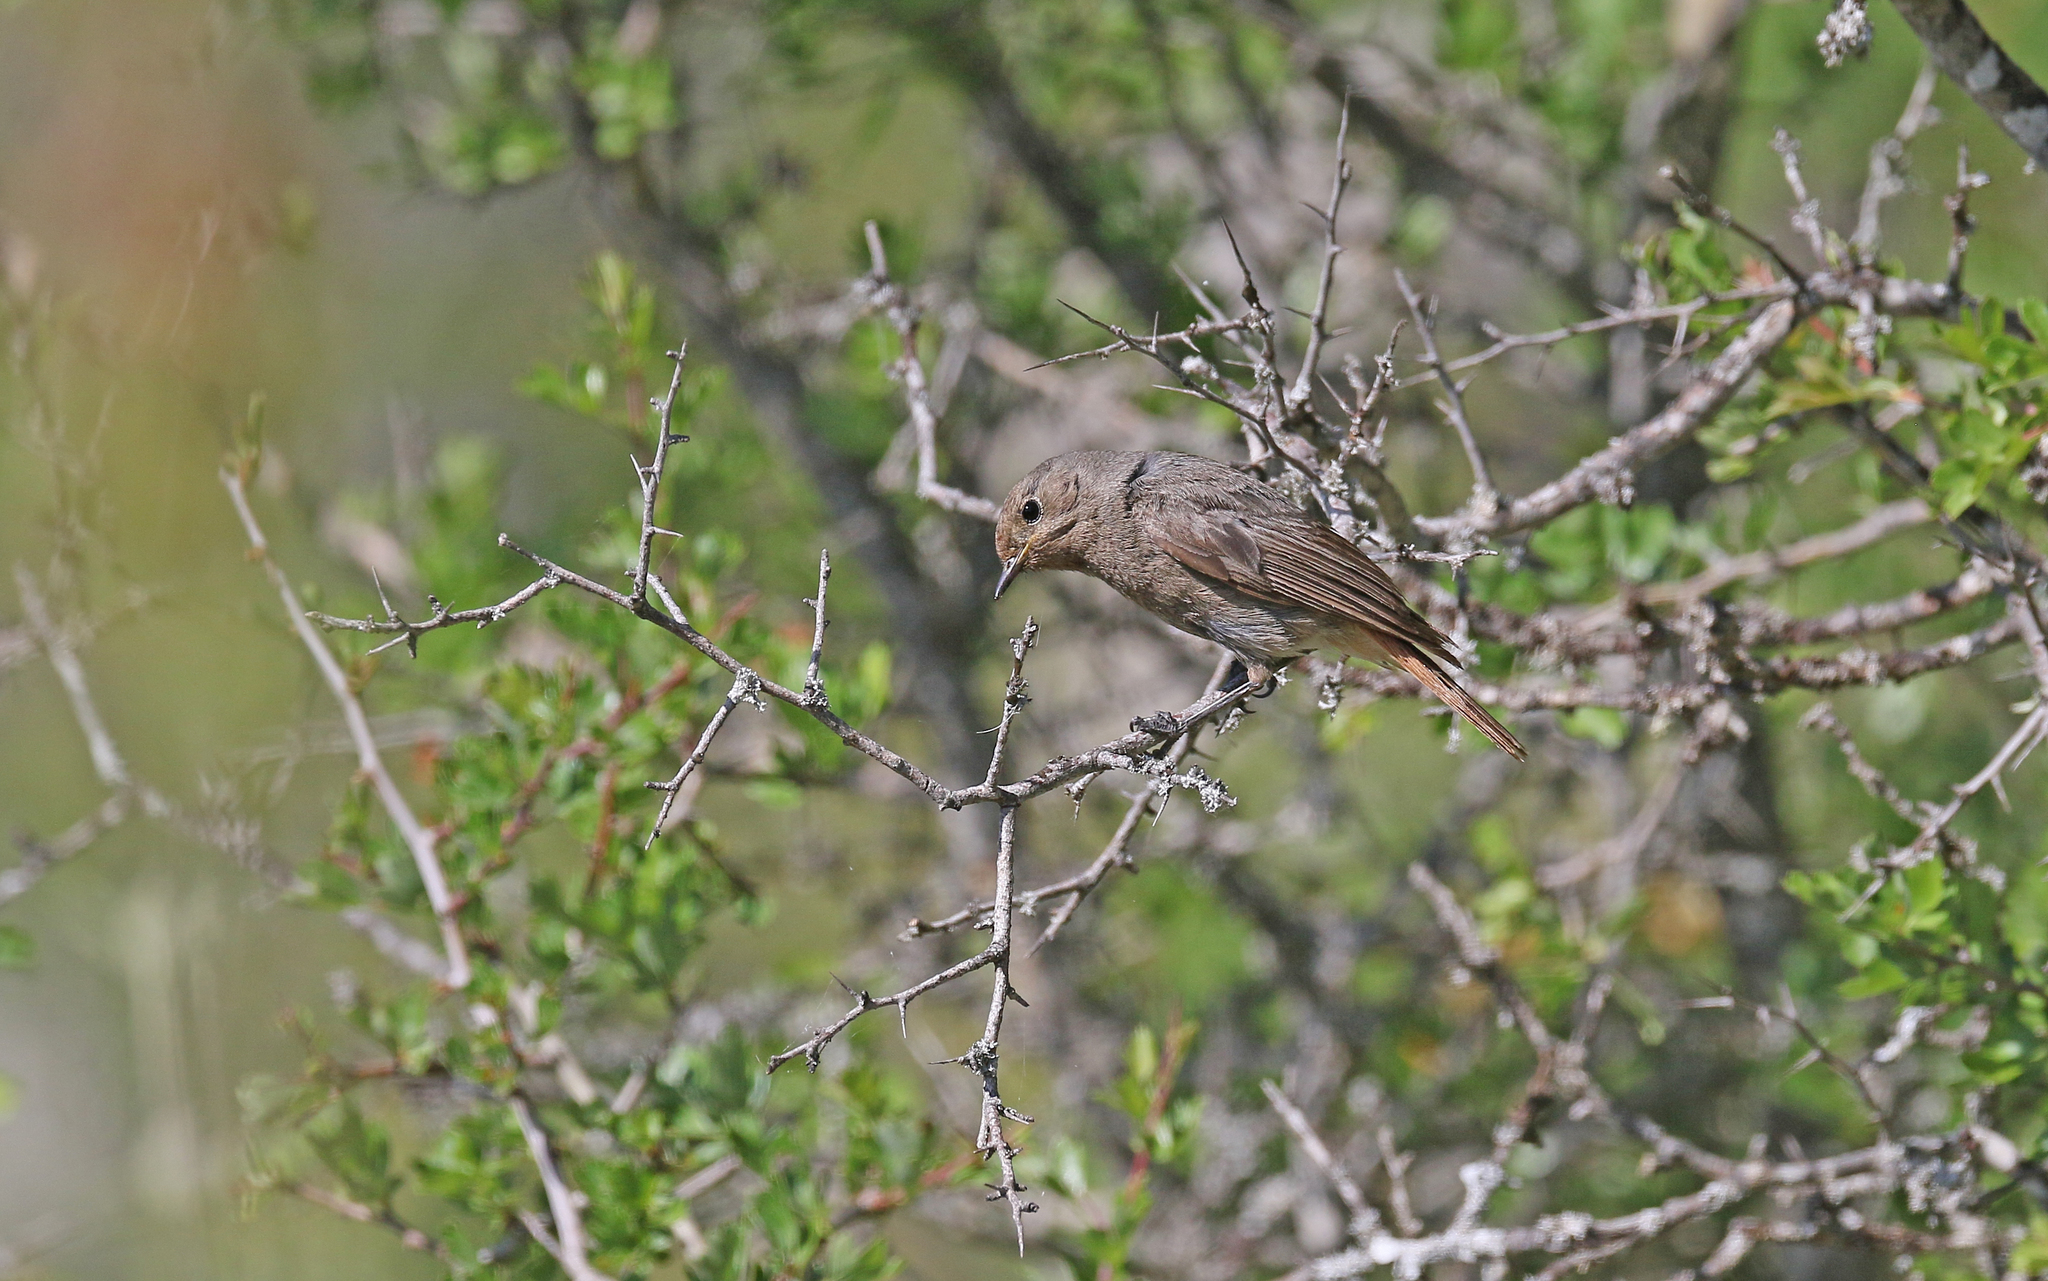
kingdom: Animalia
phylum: Chordata
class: Aves
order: Passeriformes
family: Muscicapidae
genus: Phoenicurus
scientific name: Phoenicurus ochruros
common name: Black redstart
